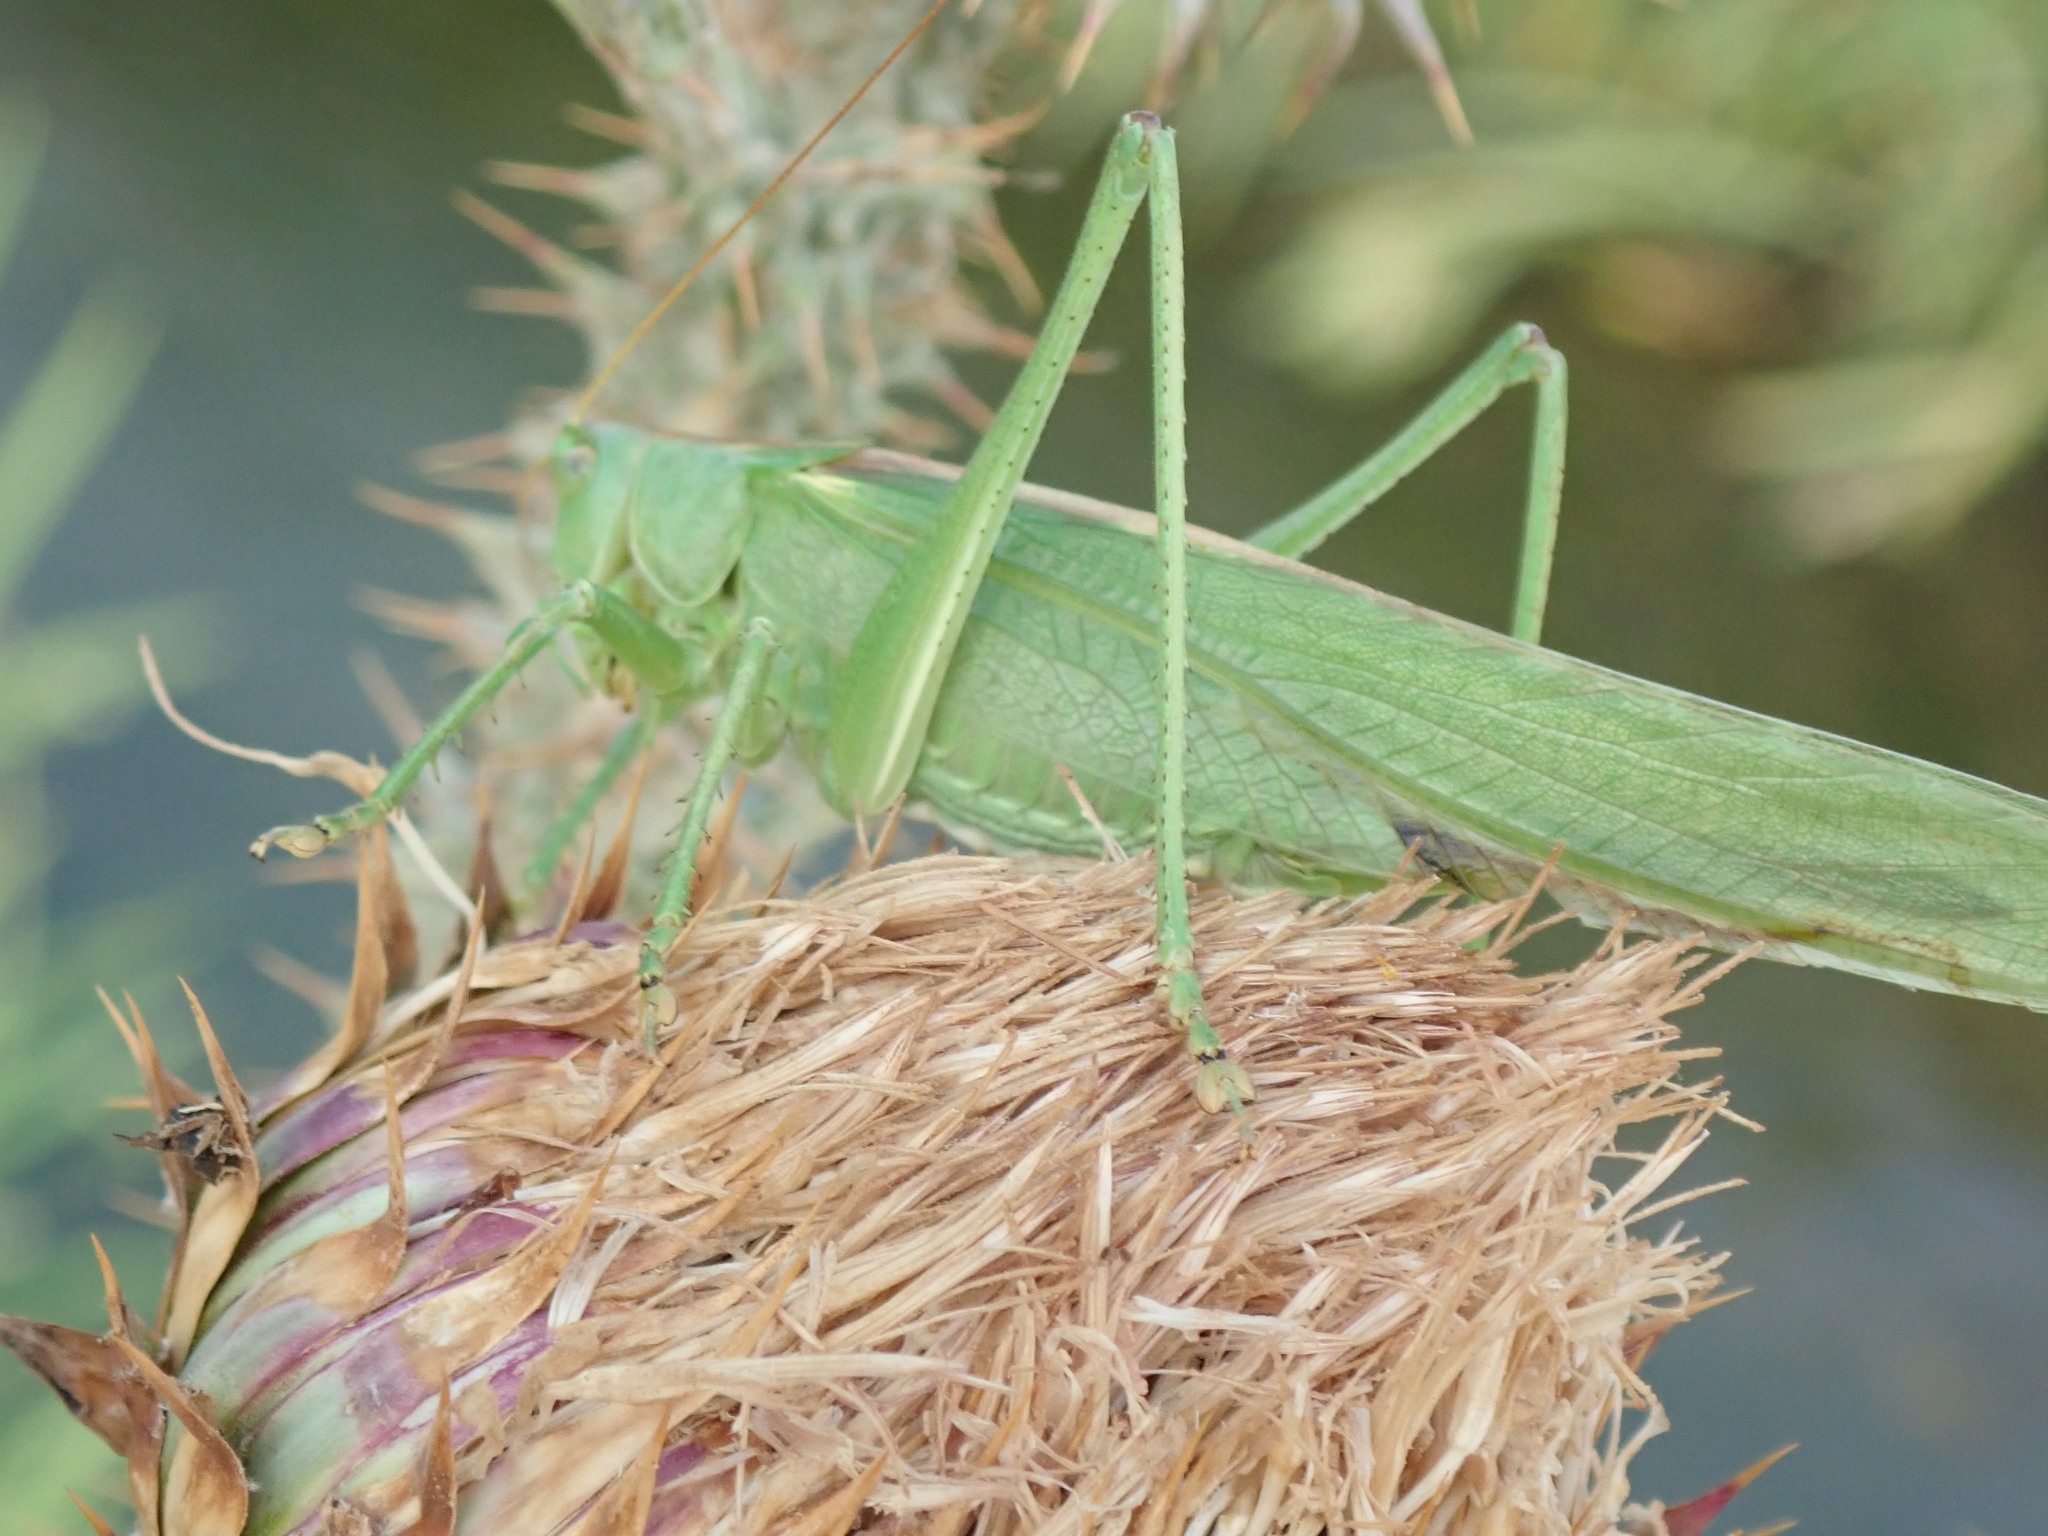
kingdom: Animalia
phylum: Arthropoda
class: Insecta
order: Orthoptera
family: Tettigoniidae
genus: Tettigonia
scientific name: Tettigonia viridissima
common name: Great green bush-cricket
